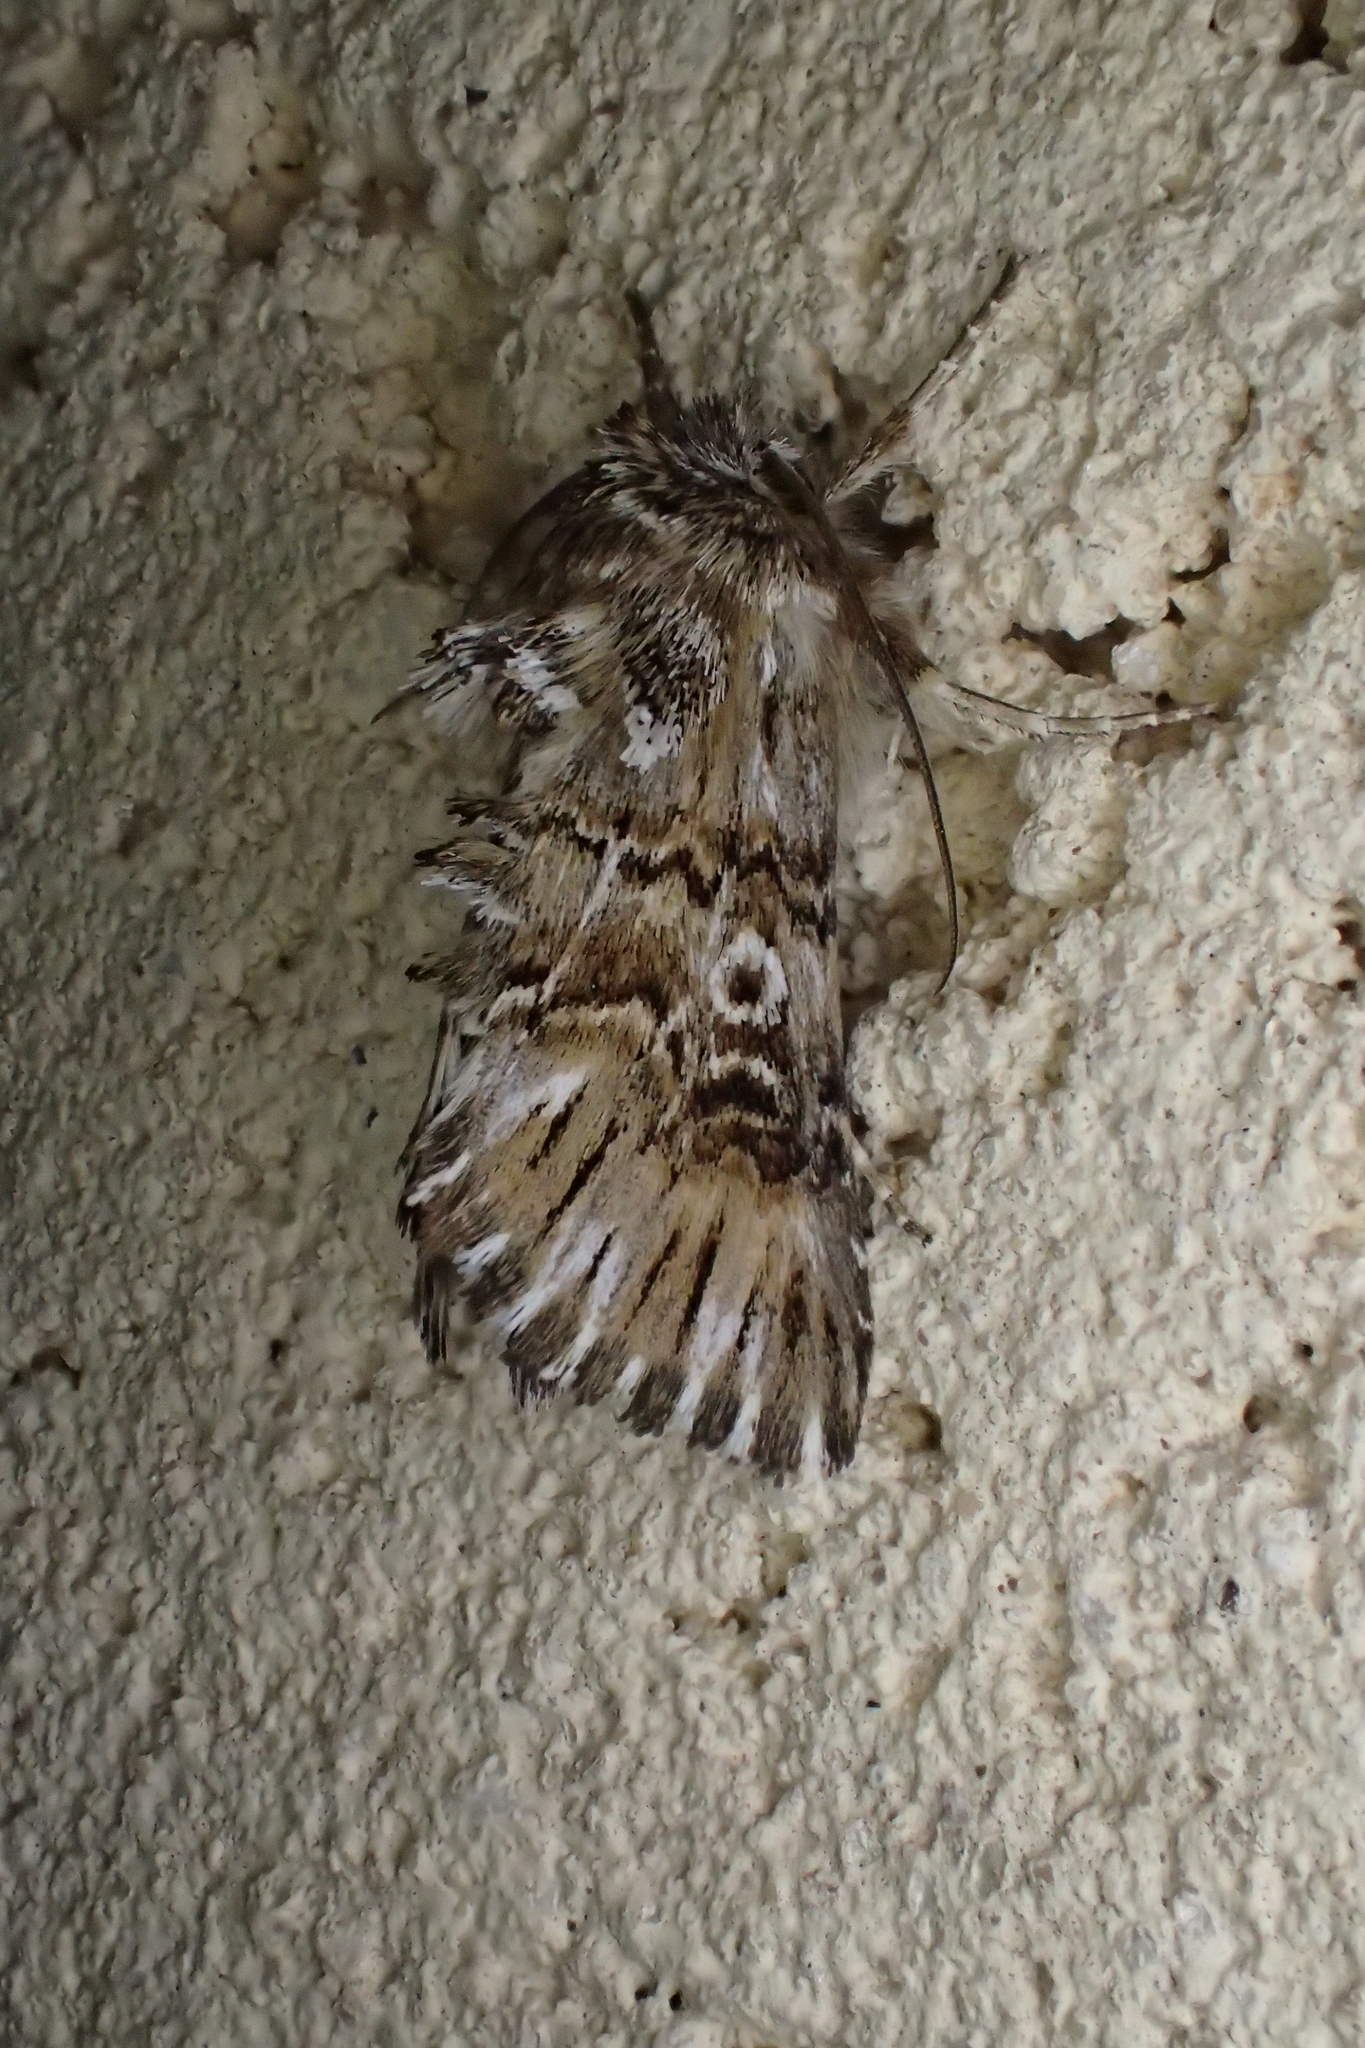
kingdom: Animalia
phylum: Arthropoda
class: Insecta
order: Lepidoptera
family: Noctuidae
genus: Omphalophana
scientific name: Omphalophana antirrhinii
